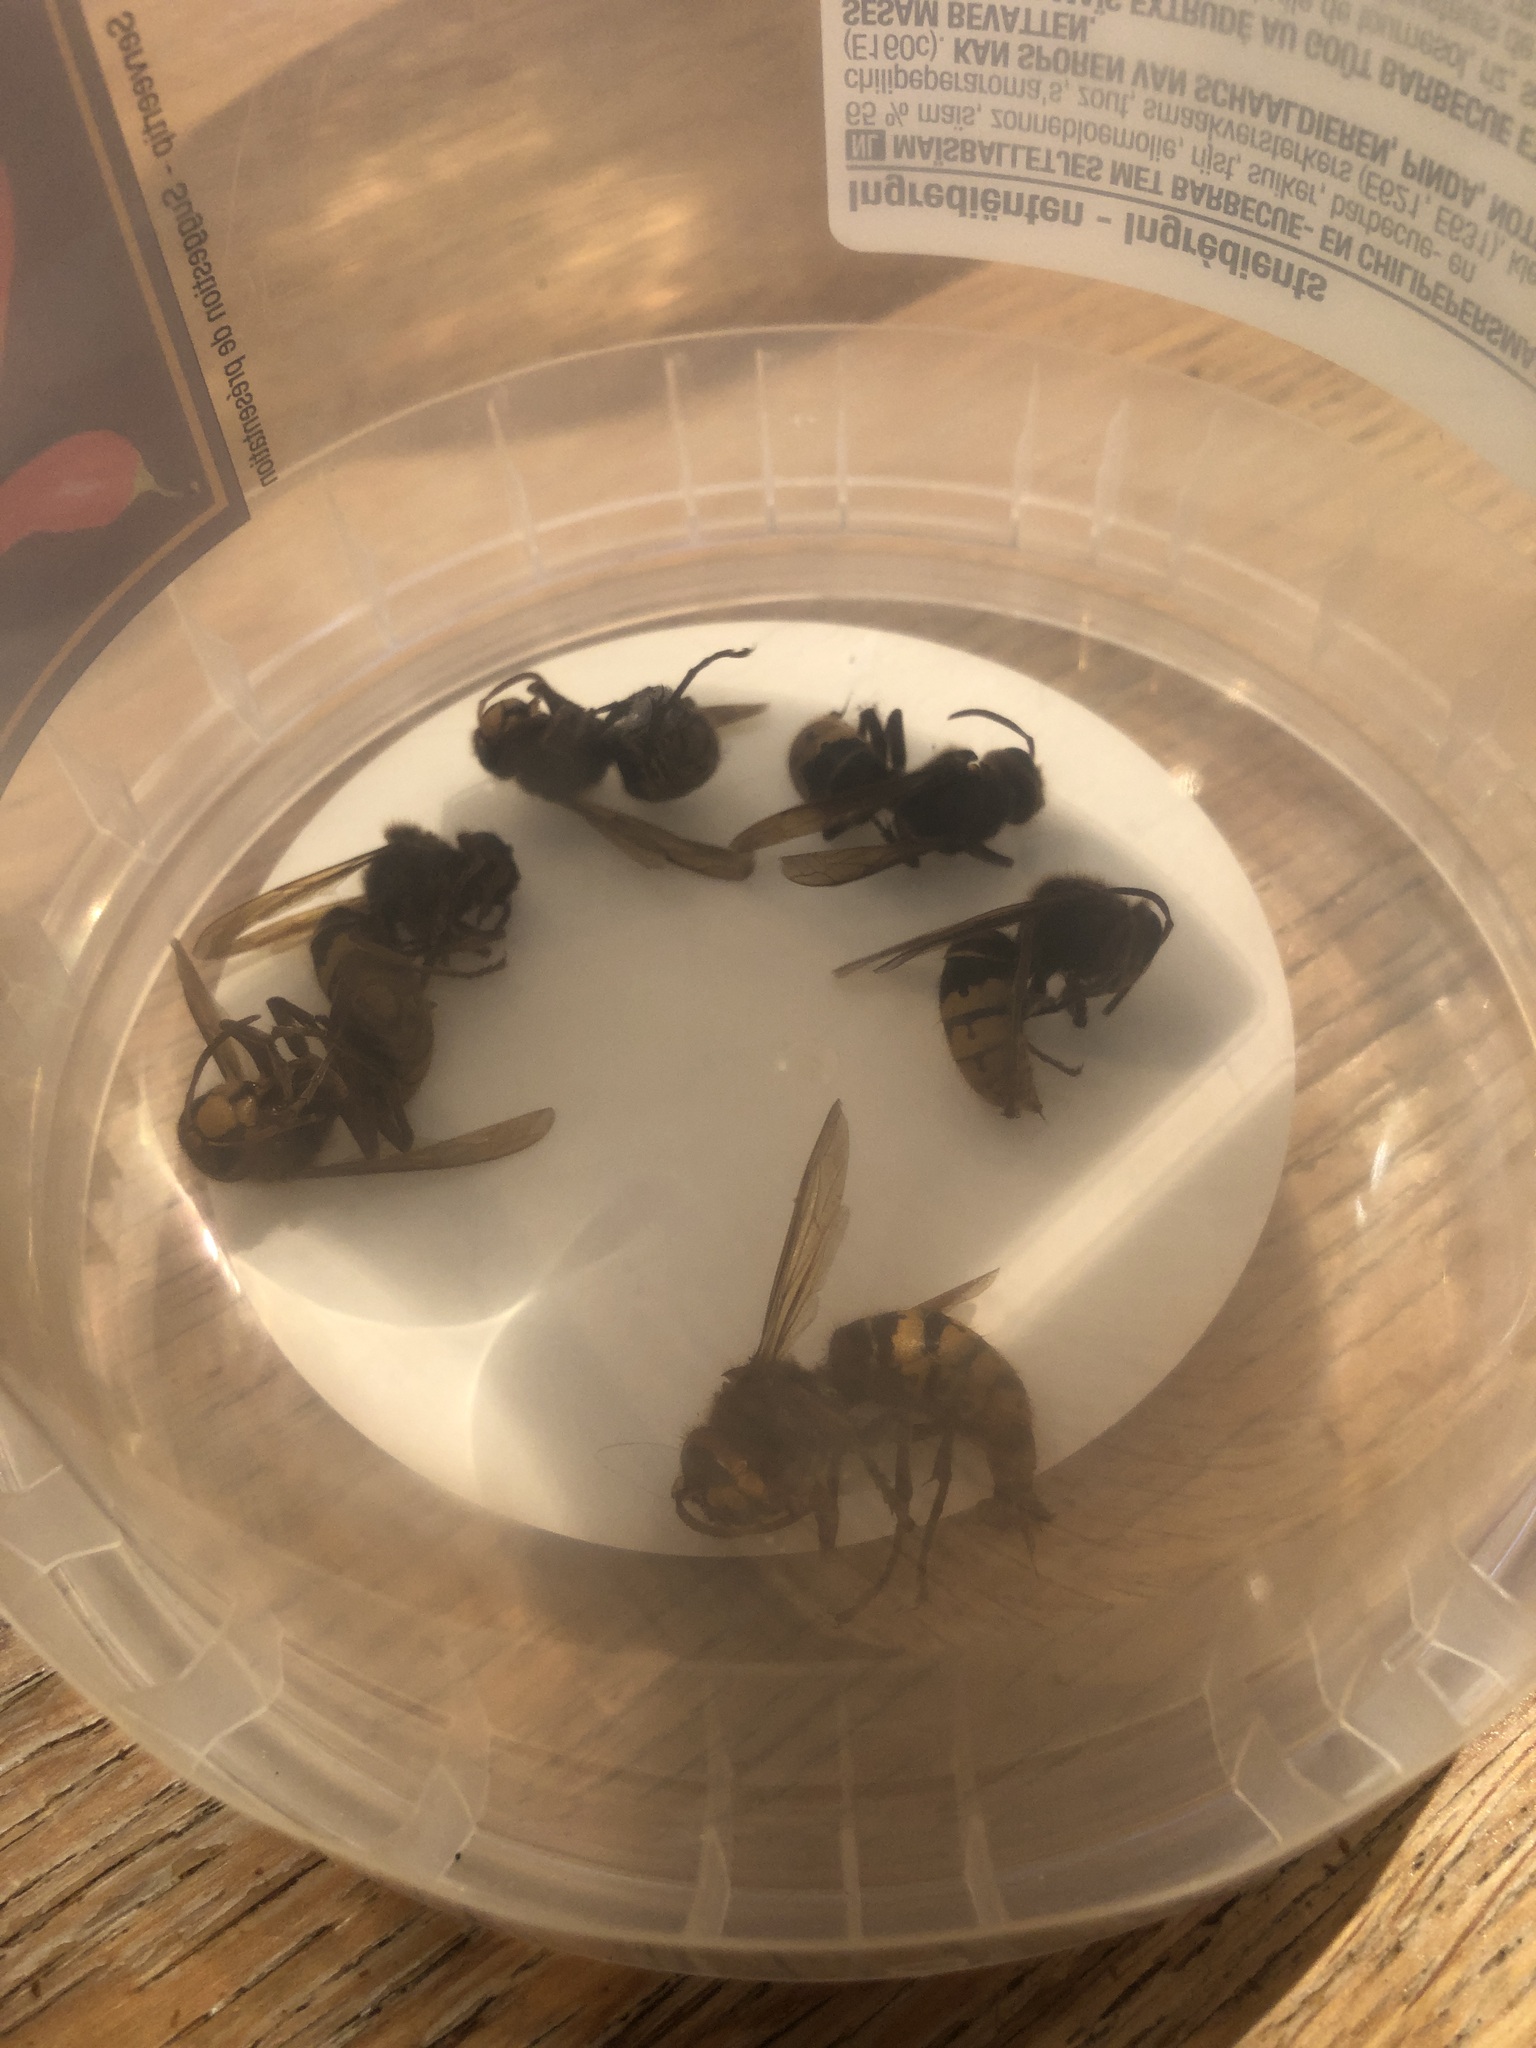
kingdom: Animalia
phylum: Arthropoda
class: Insecta
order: Hymenoptera
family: Vespidae
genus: Vespa
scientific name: Vespa crabro
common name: Hornet
